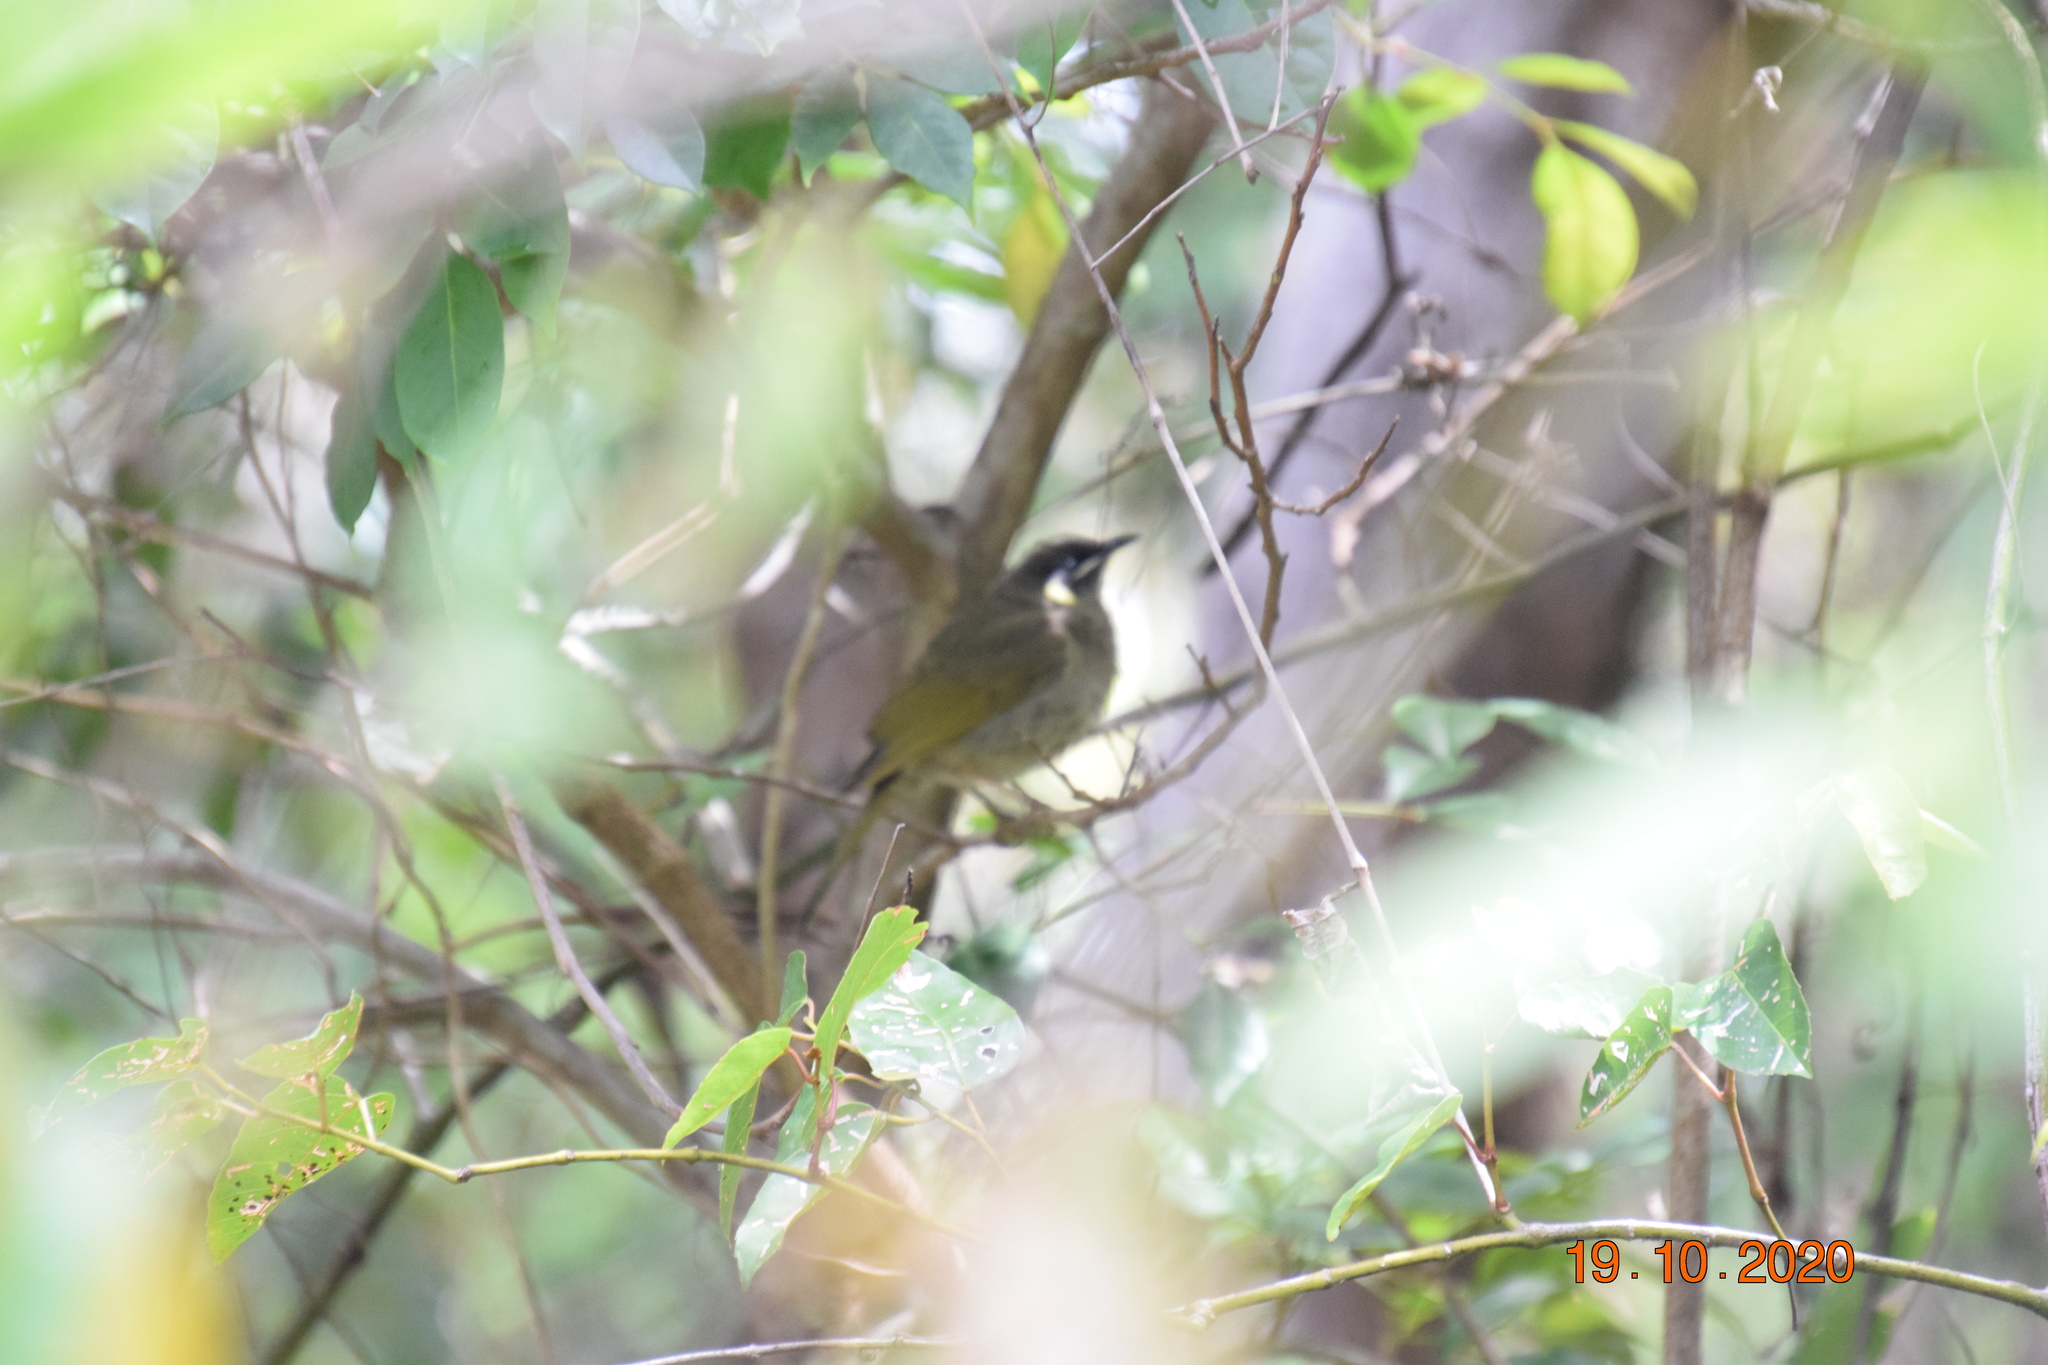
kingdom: Animalia
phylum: Chordata
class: Aves
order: Passeriformes
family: Meliphagidae
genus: Meliphaga
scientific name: Meliphaga lewinii
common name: Lewin's honeyeater
